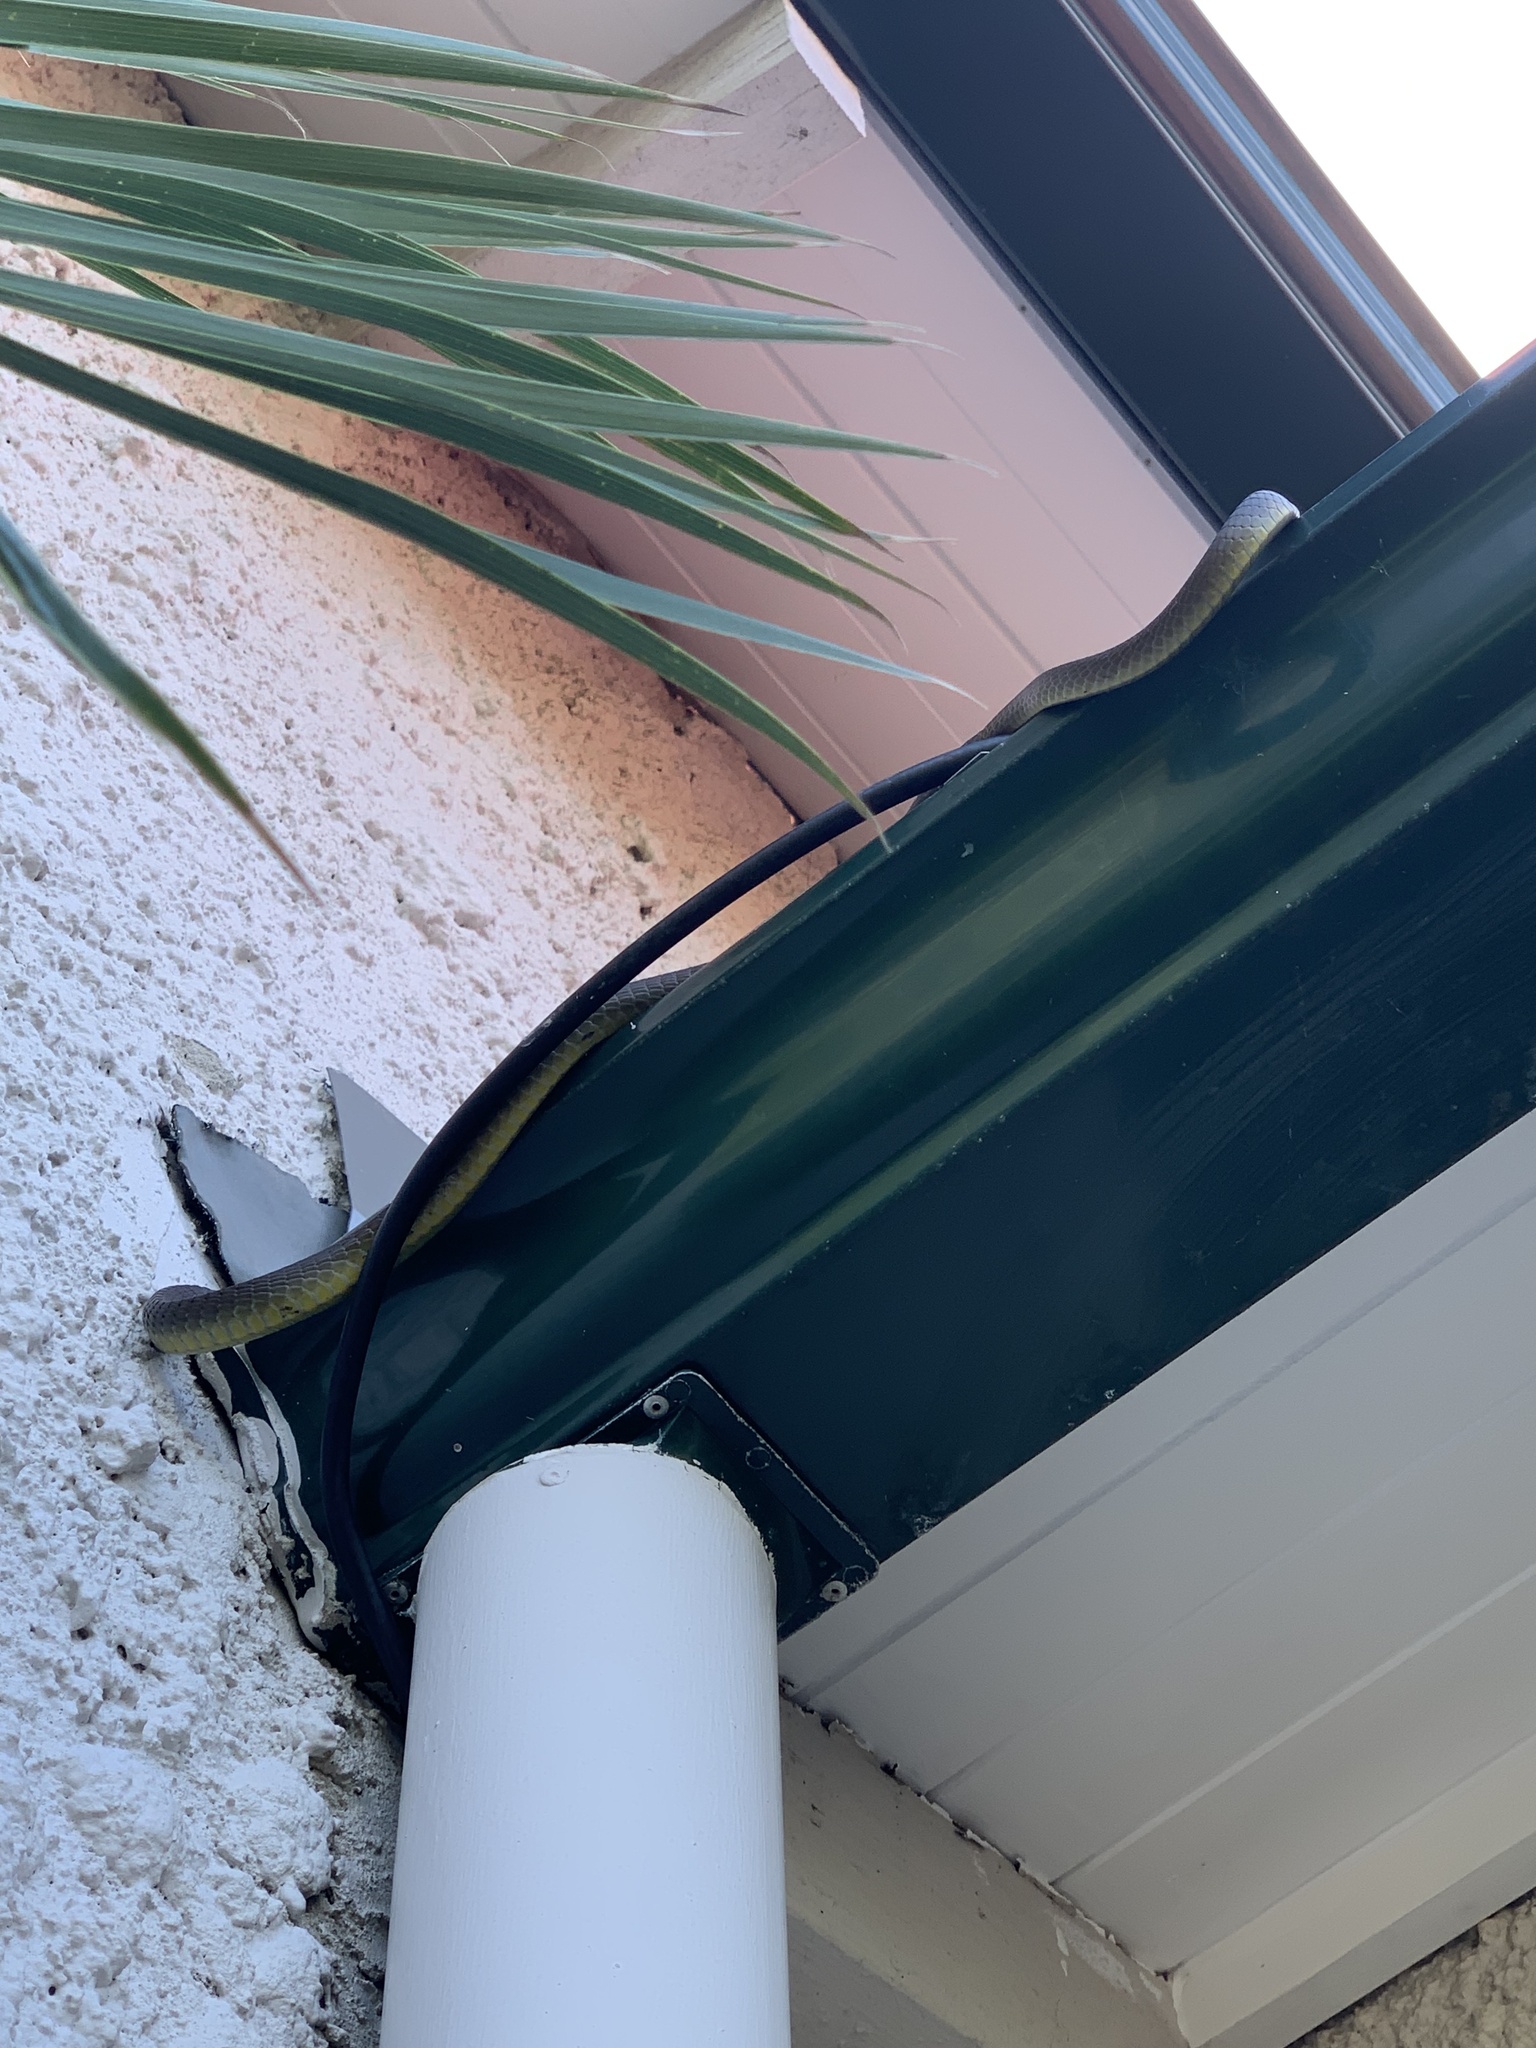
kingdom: Animalia
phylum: Chordata
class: Squamata
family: Colubridae
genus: Dendrelaphis
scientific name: Dendrelaphis punctulatus
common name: Common tree snake
